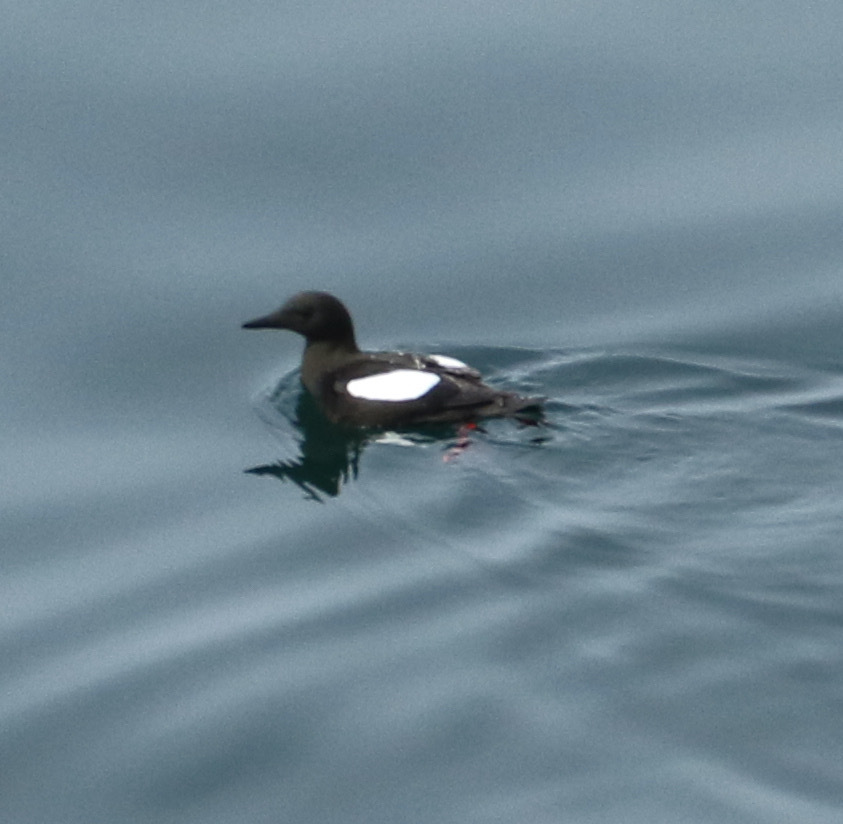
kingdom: Animalia
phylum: Chordata
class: Aves
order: Charadriiformes
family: Alcidae
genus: Cepphus
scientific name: Cepphus grylle
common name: Black guillemot
